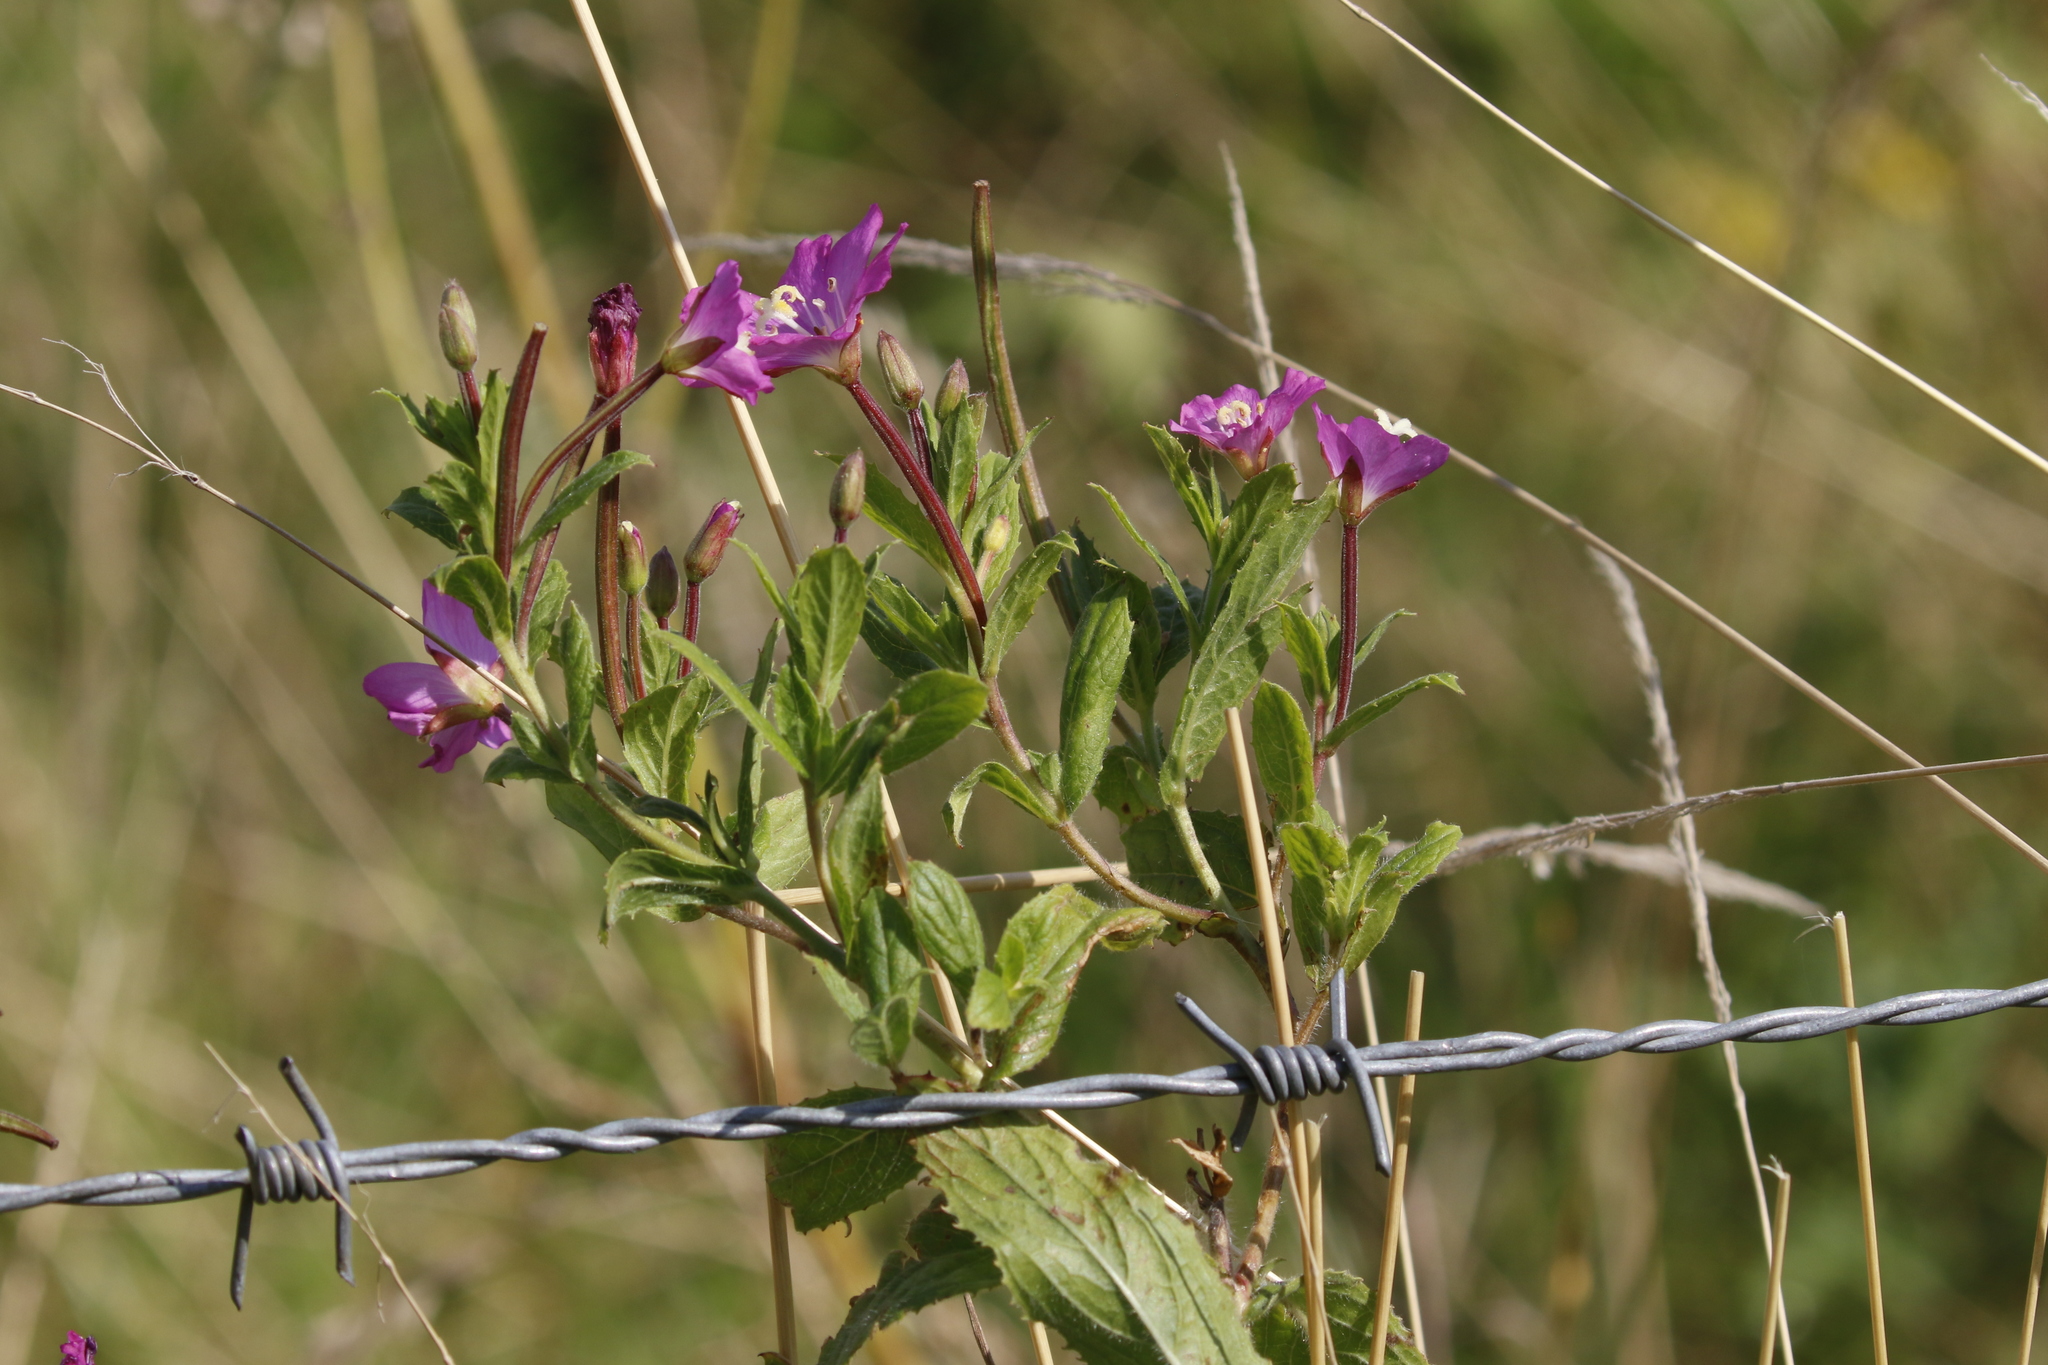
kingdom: Plantae
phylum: Tracheophyta
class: Magnoliopsida
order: Myrtales
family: Onagraceae
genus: Epilobium
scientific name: Epilobium hirsutum
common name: Great willowherb
